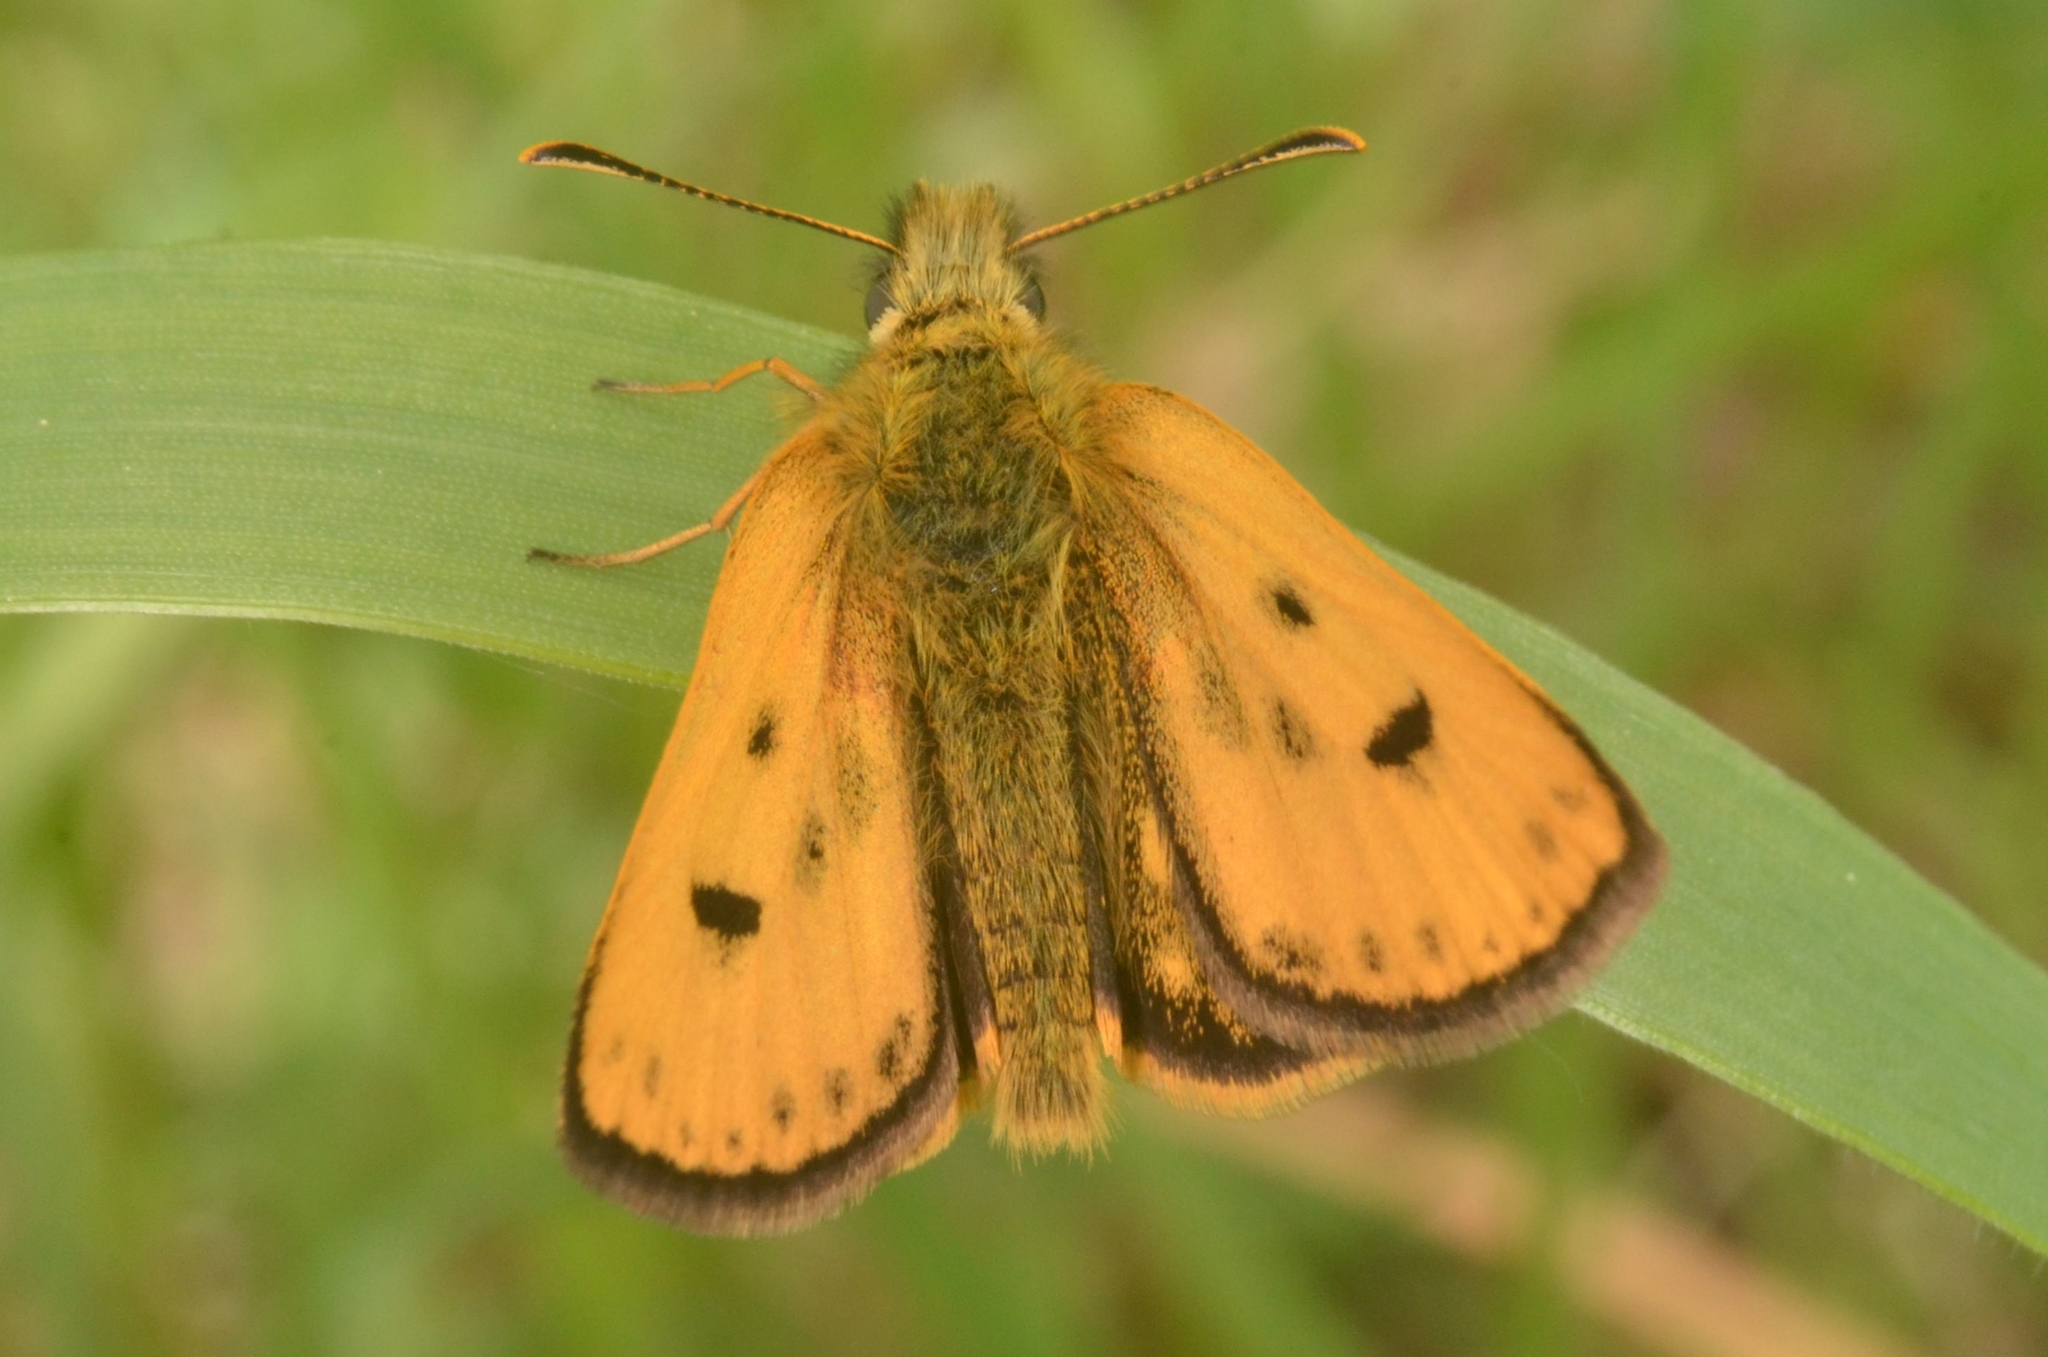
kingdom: Animalia
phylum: Arthropoda
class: Insecta
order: Lepidoptera
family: Hesperiidae
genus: Carterocephalus
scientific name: Carterocephalus silvicola
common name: Northern chequered skipper
